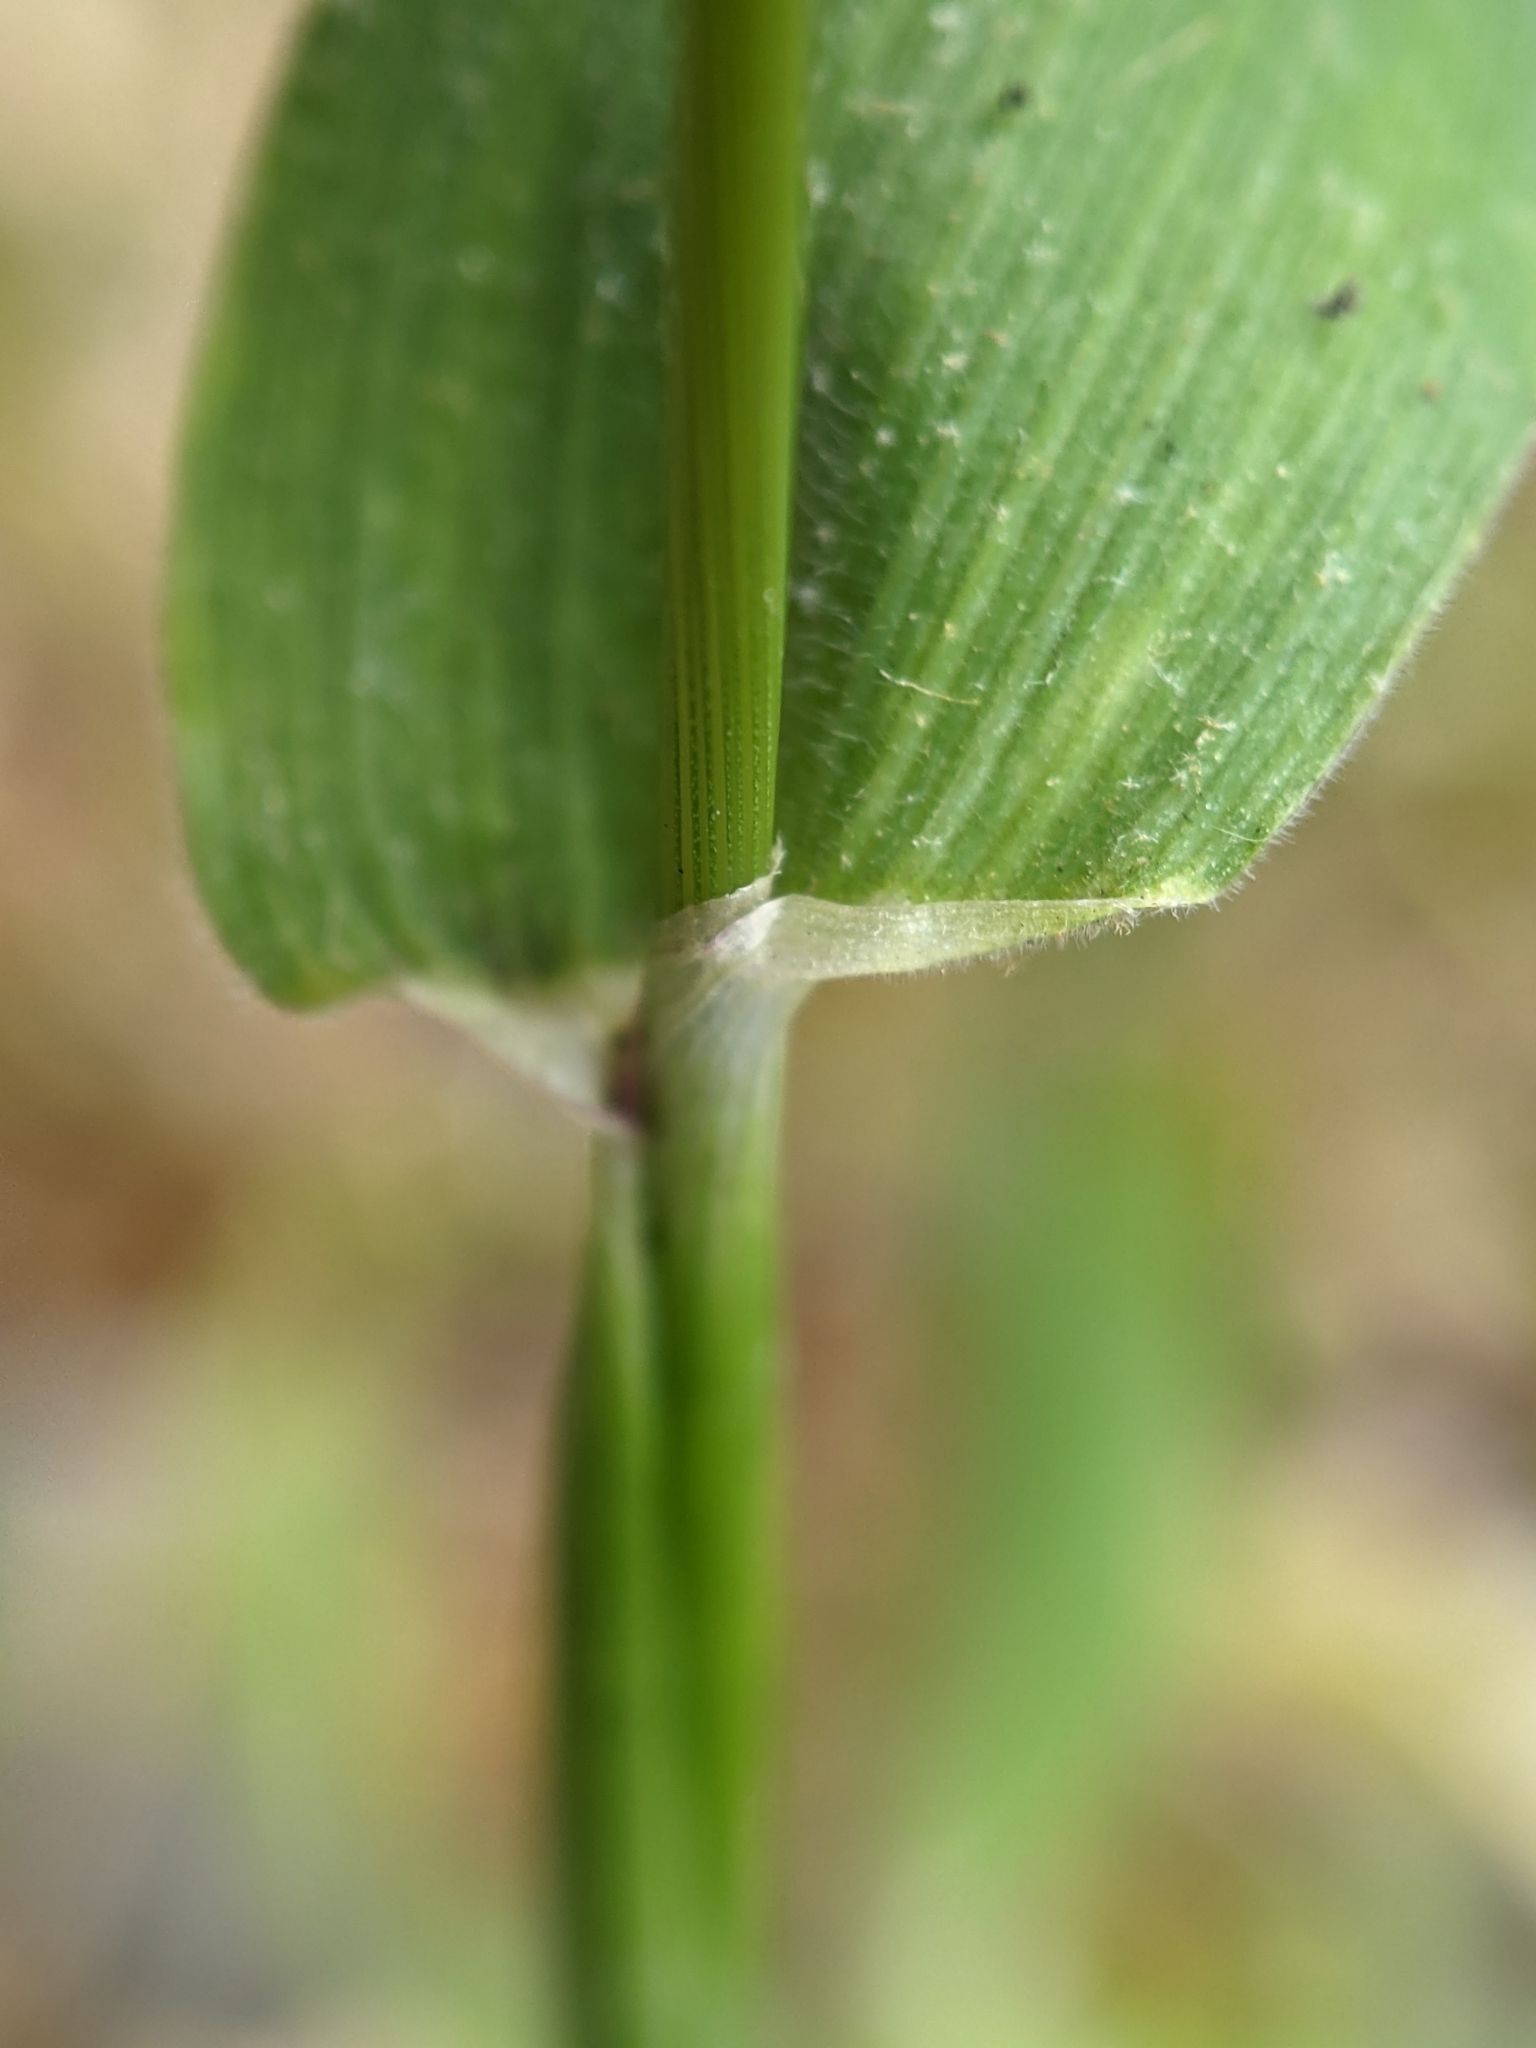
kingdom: Plantae
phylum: Tracheophyta
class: Liliopsida
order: Poales
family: Poaceae
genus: Lagurus
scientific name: Lagurus ovatus
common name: Hare's-tail
